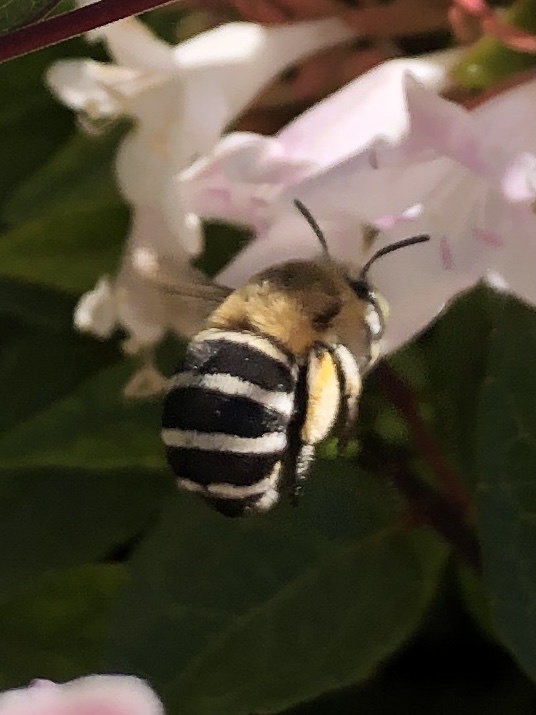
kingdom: Animalia
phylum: Arthropoda
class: Insecta
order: Hymenoptera
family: Apidae
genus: Amegilla
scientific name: Amegilla quadrifasciata
